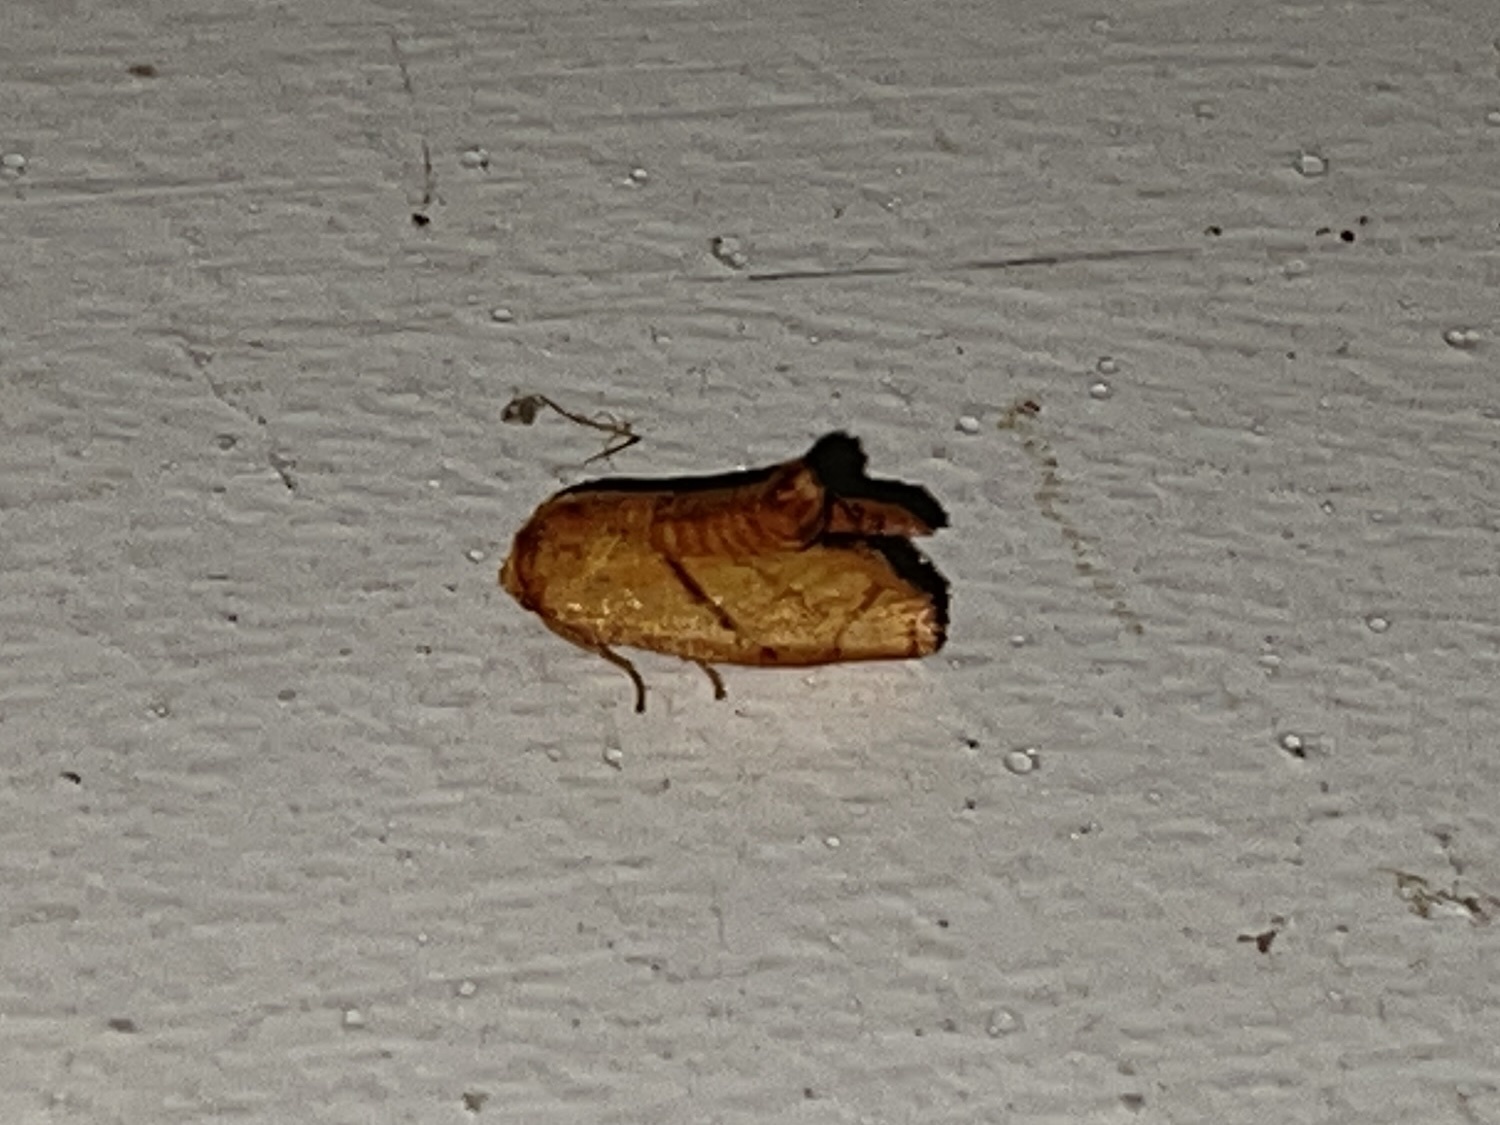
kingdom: Animalia
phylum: Arthropoda
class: Insecta
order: Lepidoptera
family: Limacodidae
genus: Apoda
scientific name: Apoda y-inversa
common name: Yellow-collared slug moth
